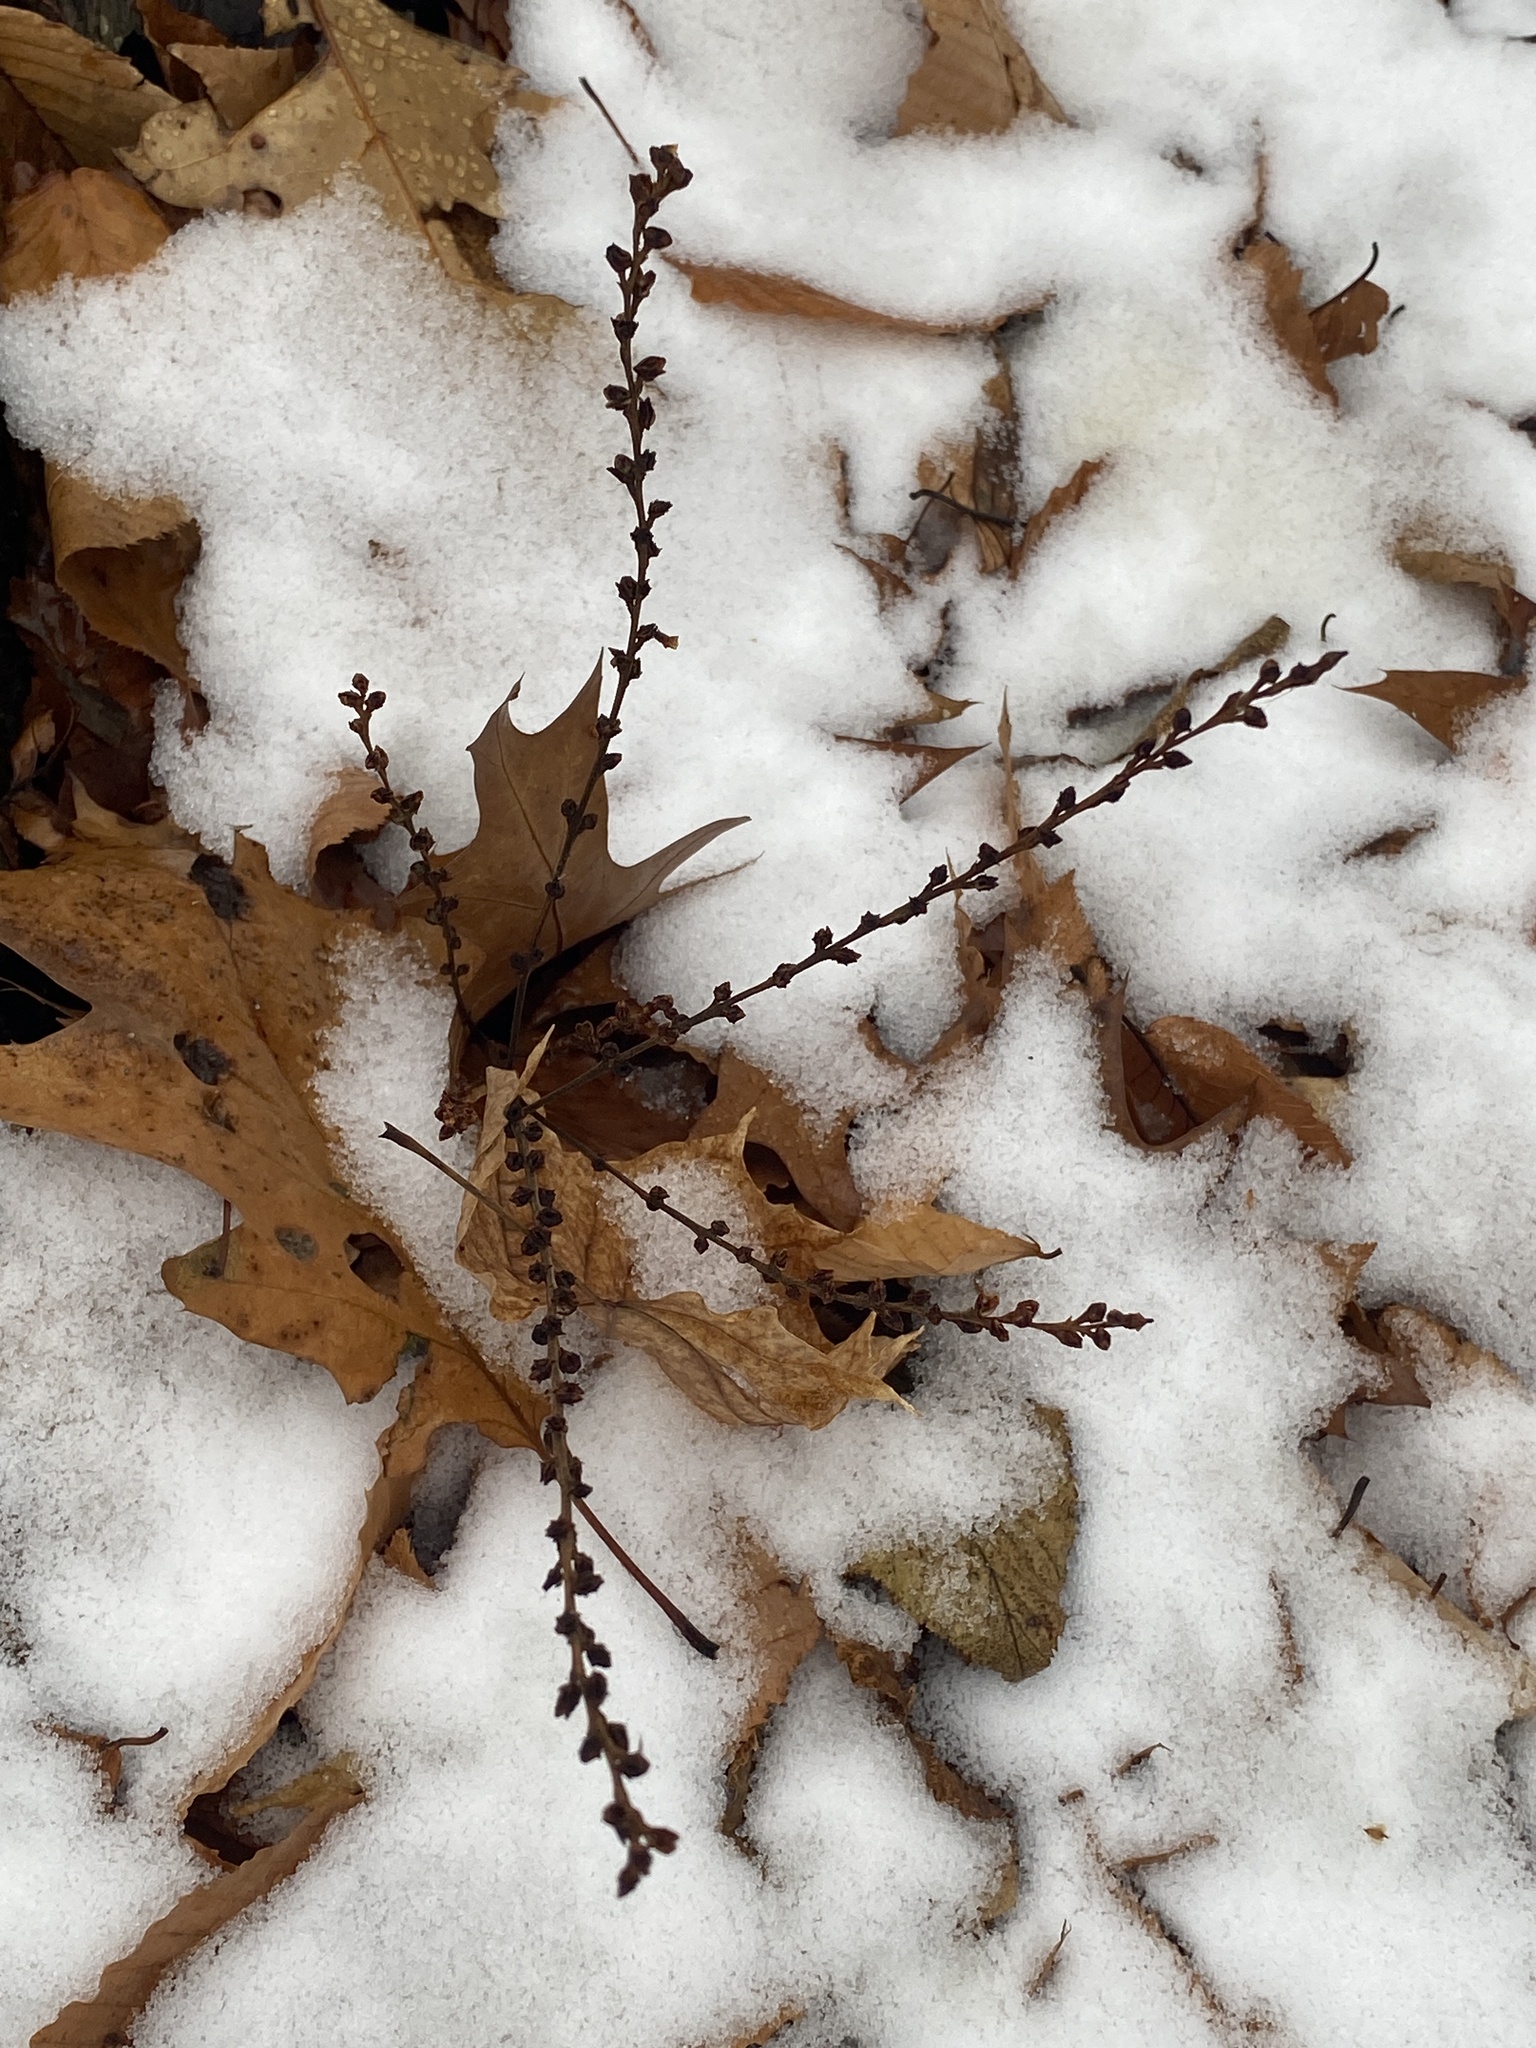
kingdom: Plantae
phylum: Tracheophyta
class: Magnoliopsida
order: Lamiales
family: Orobanchaceae
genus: Epifagus
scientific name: Epifagus virginiana
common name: Beechdrops
